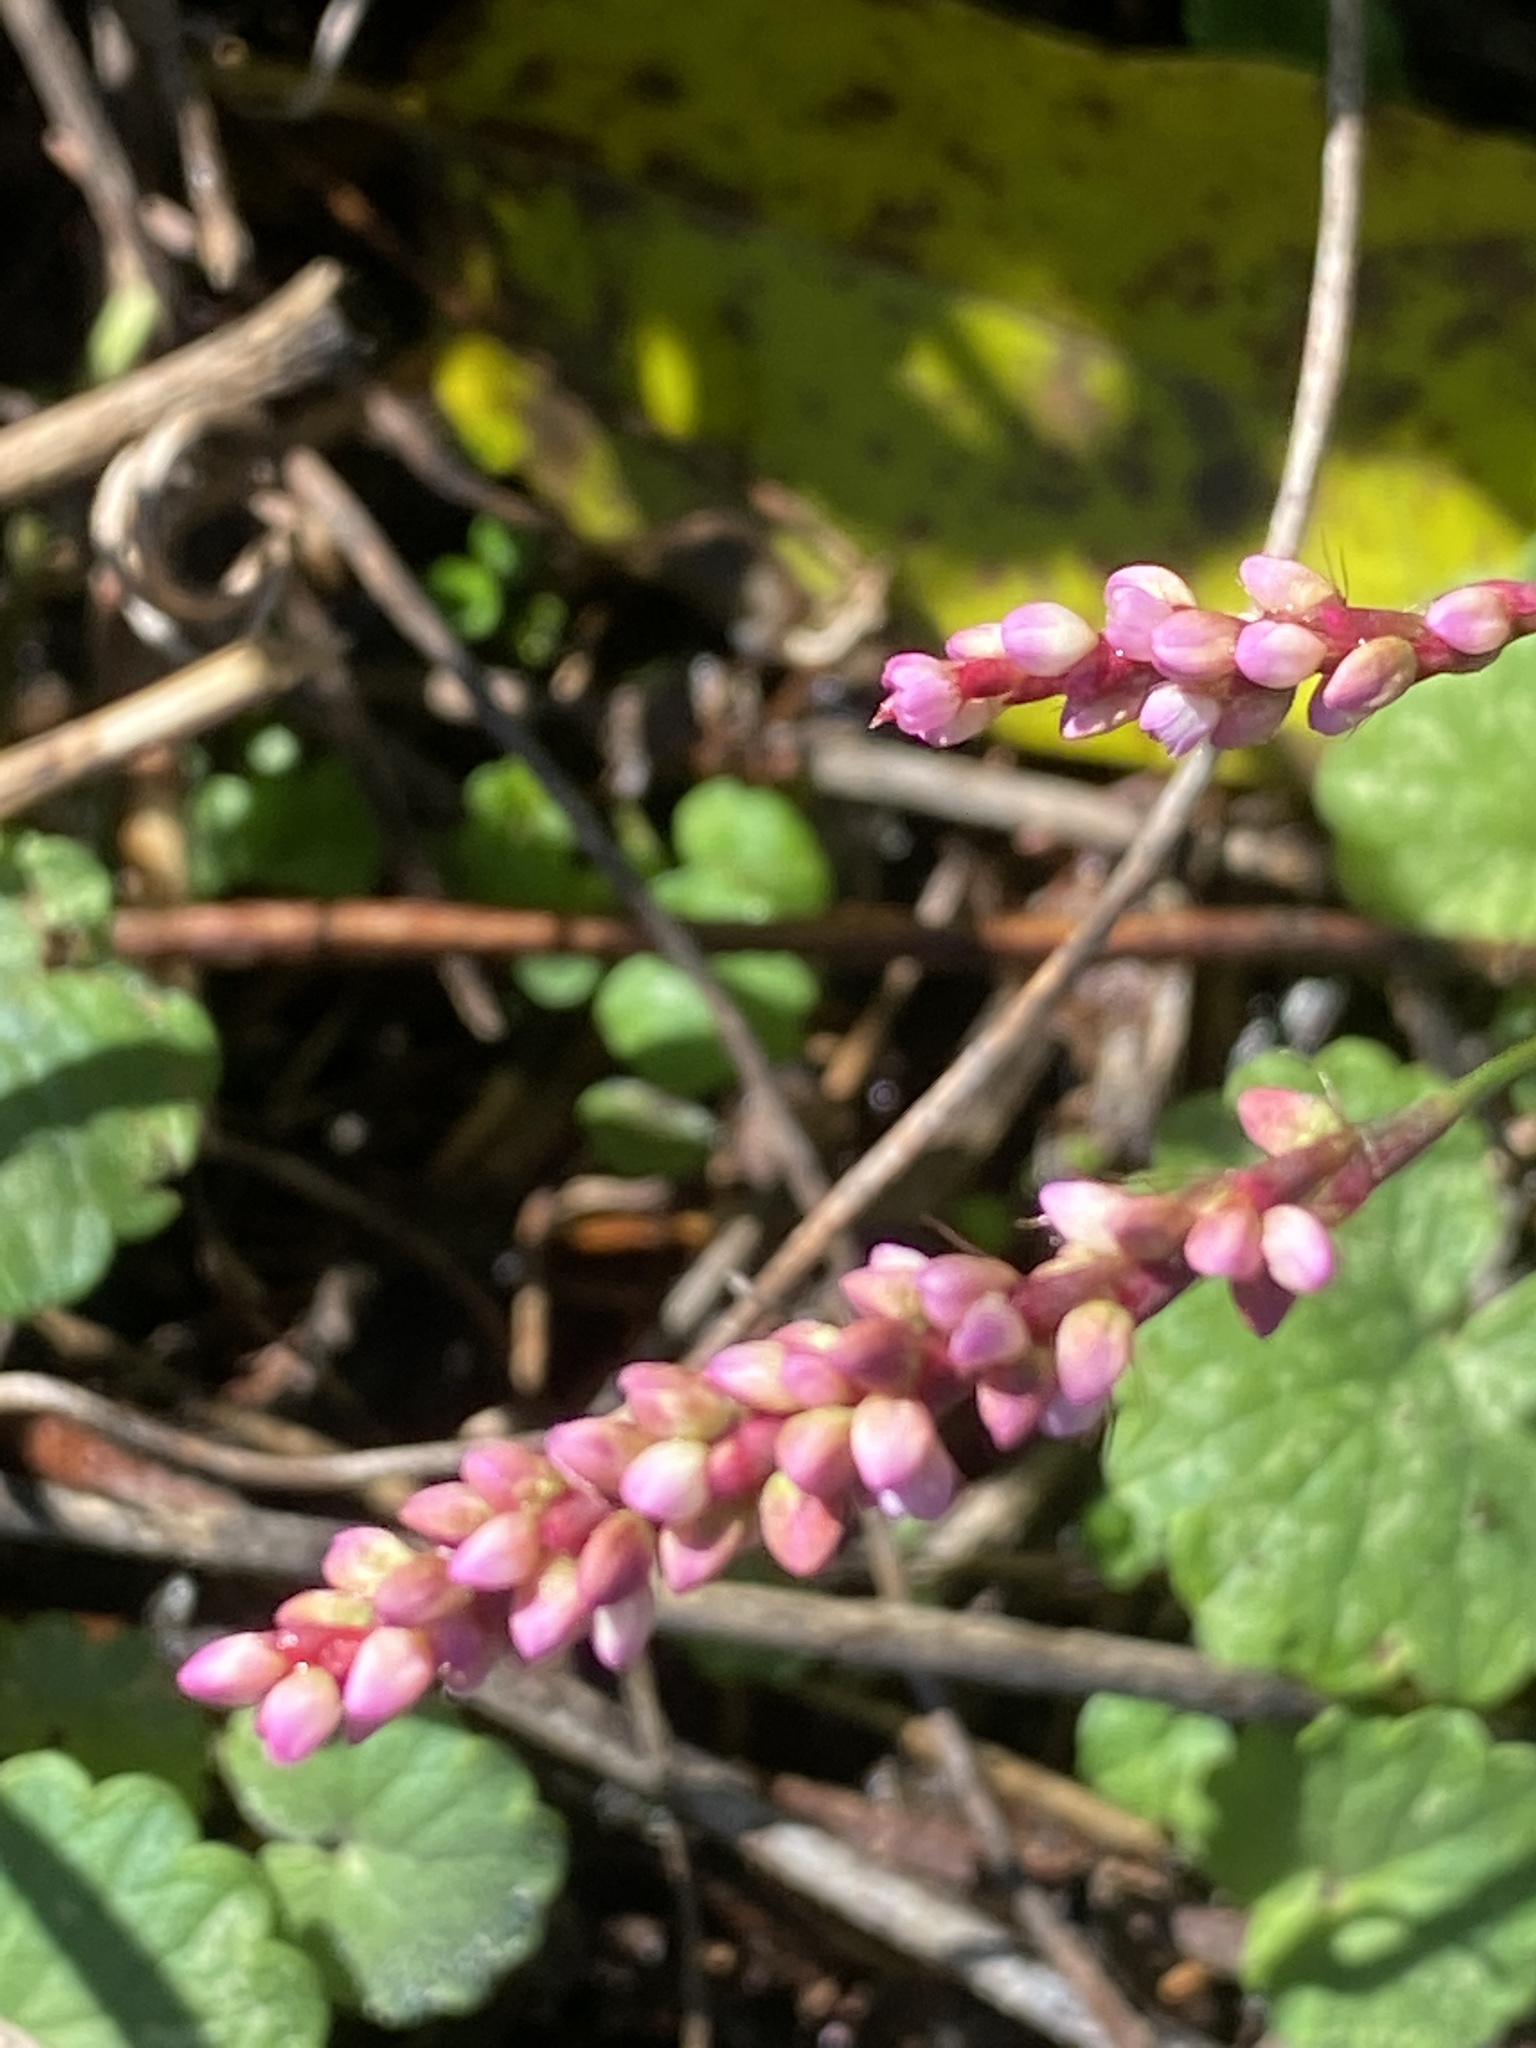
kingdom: Plantae
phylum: Tracheophyta
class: Magnoliopsida
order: Caryophyllales
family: Polygonaceae
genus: Persicaria
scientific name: Persicaria longiseta
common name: Bristly lady's-thumb
